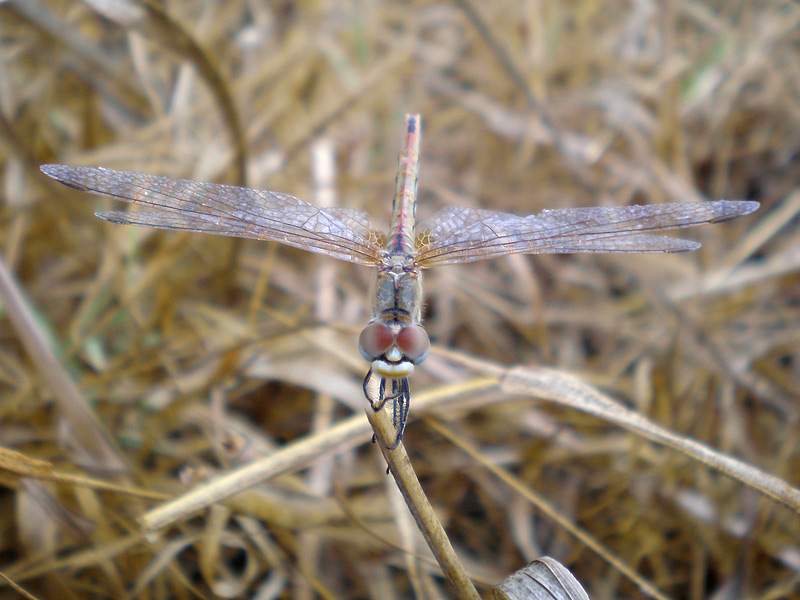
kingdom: Animalia
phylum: Arthropoda
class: Insecta
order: Odonata
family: Libellulidae
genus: Sympetrum
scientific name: Sympetrum fonscolombii
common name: Red-veined darter
